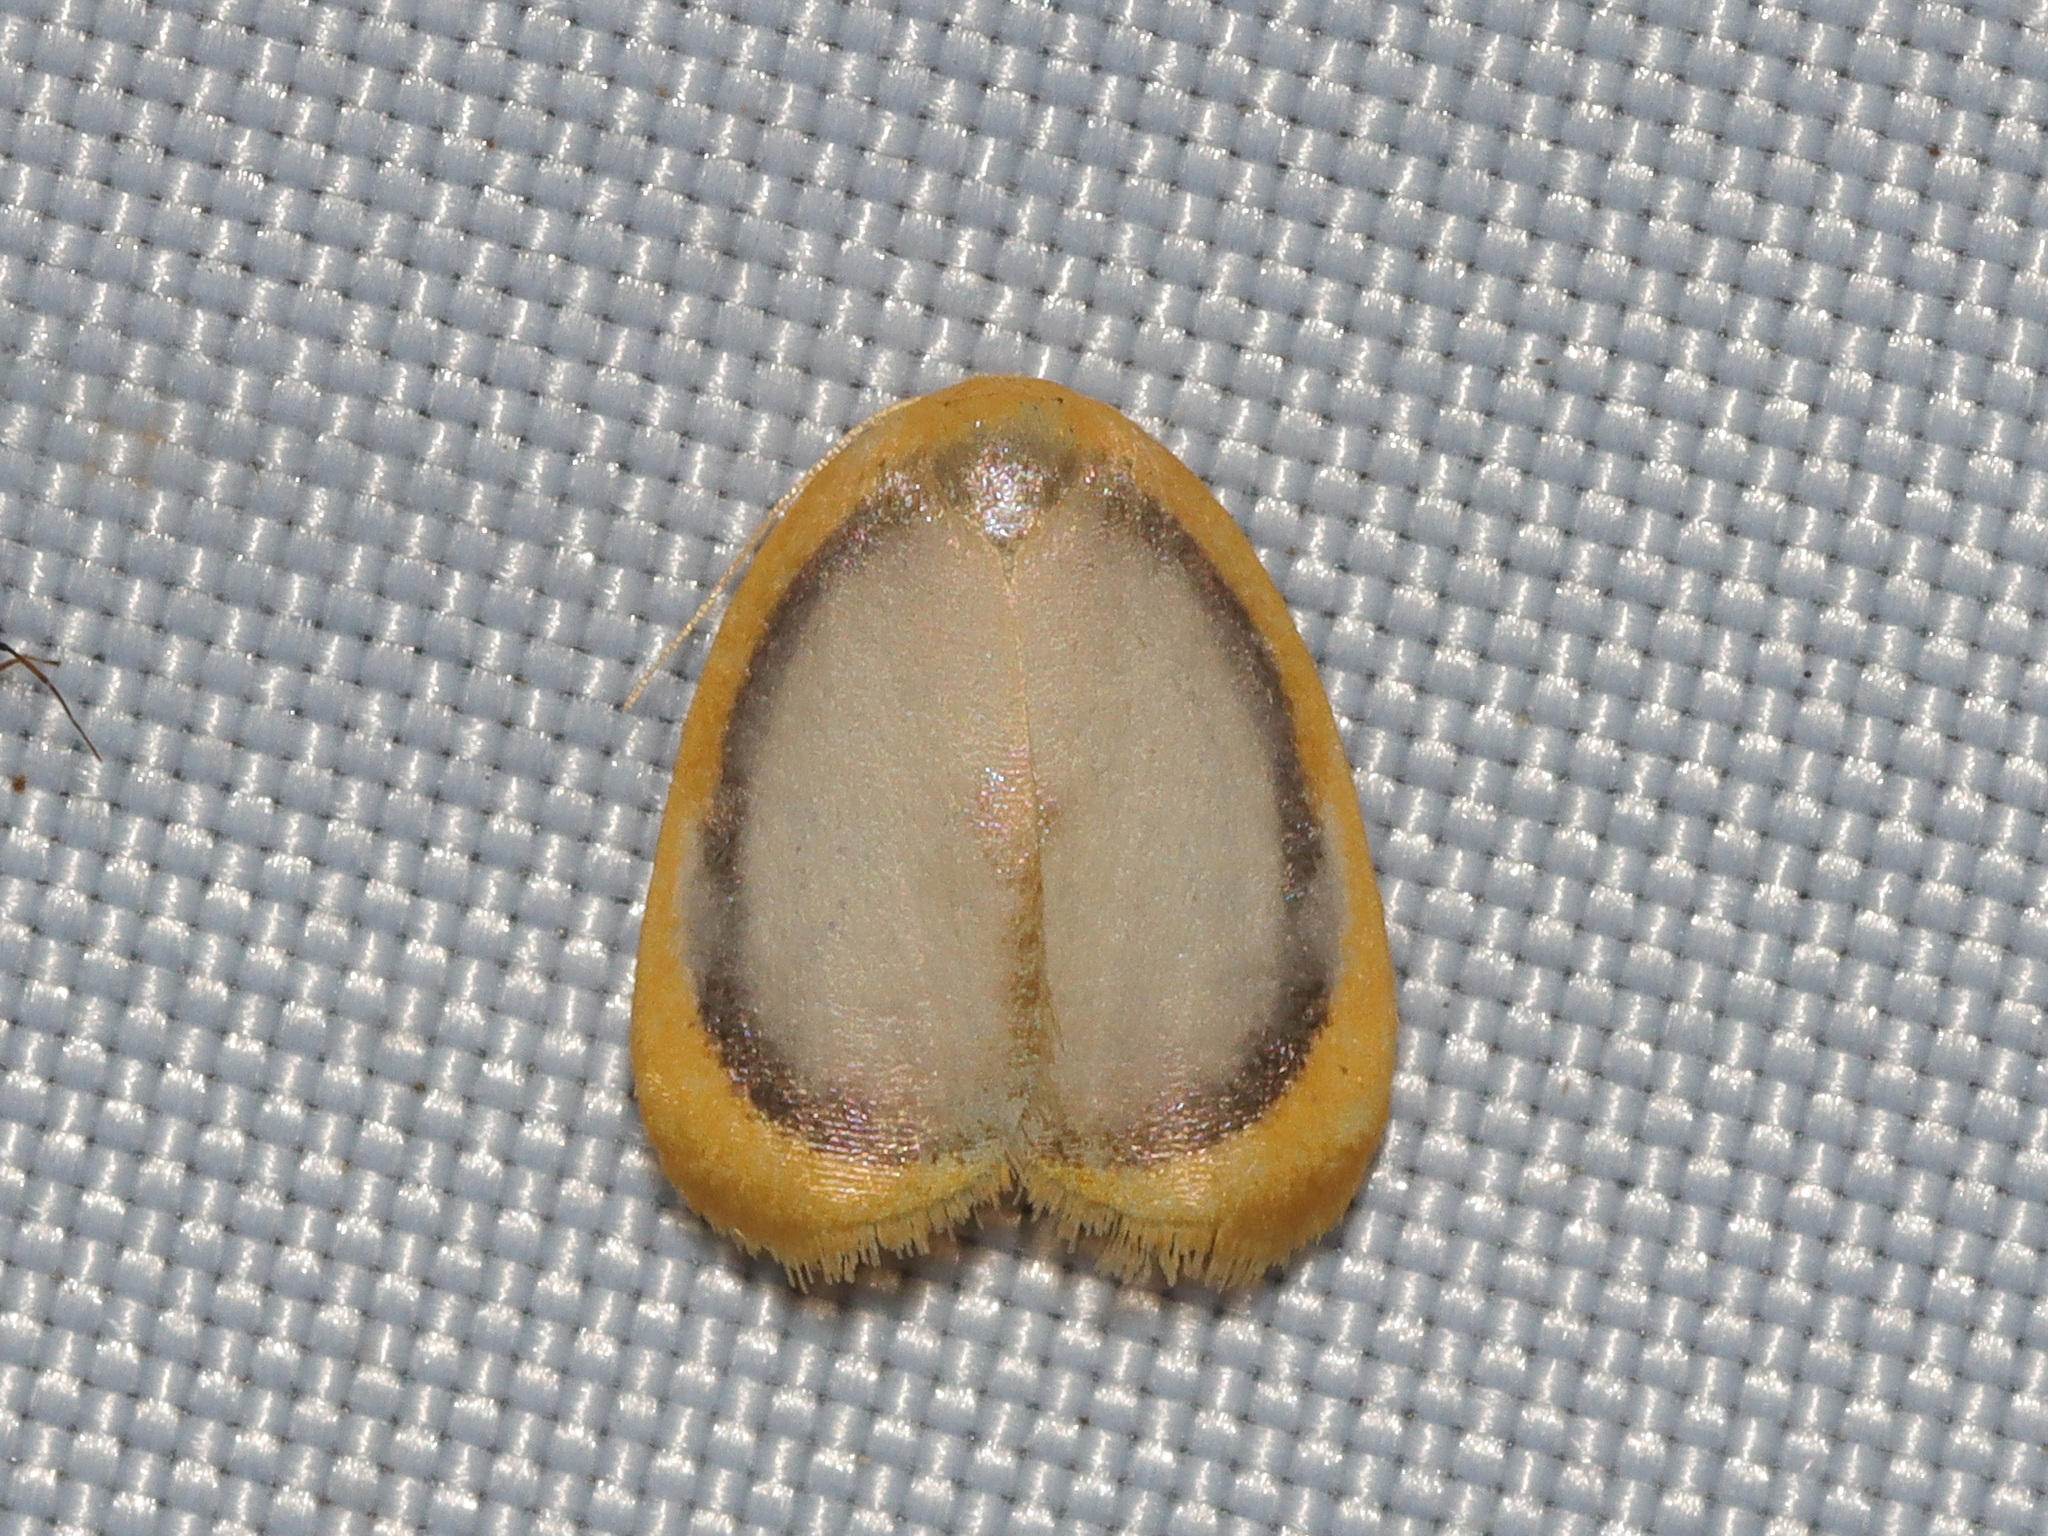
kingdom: Animalia
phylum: Arthropoda
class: Insecta
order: Lepidoptera
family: Erebidae
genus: Cyclosiella
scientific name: Cyclosiella dulcicula
